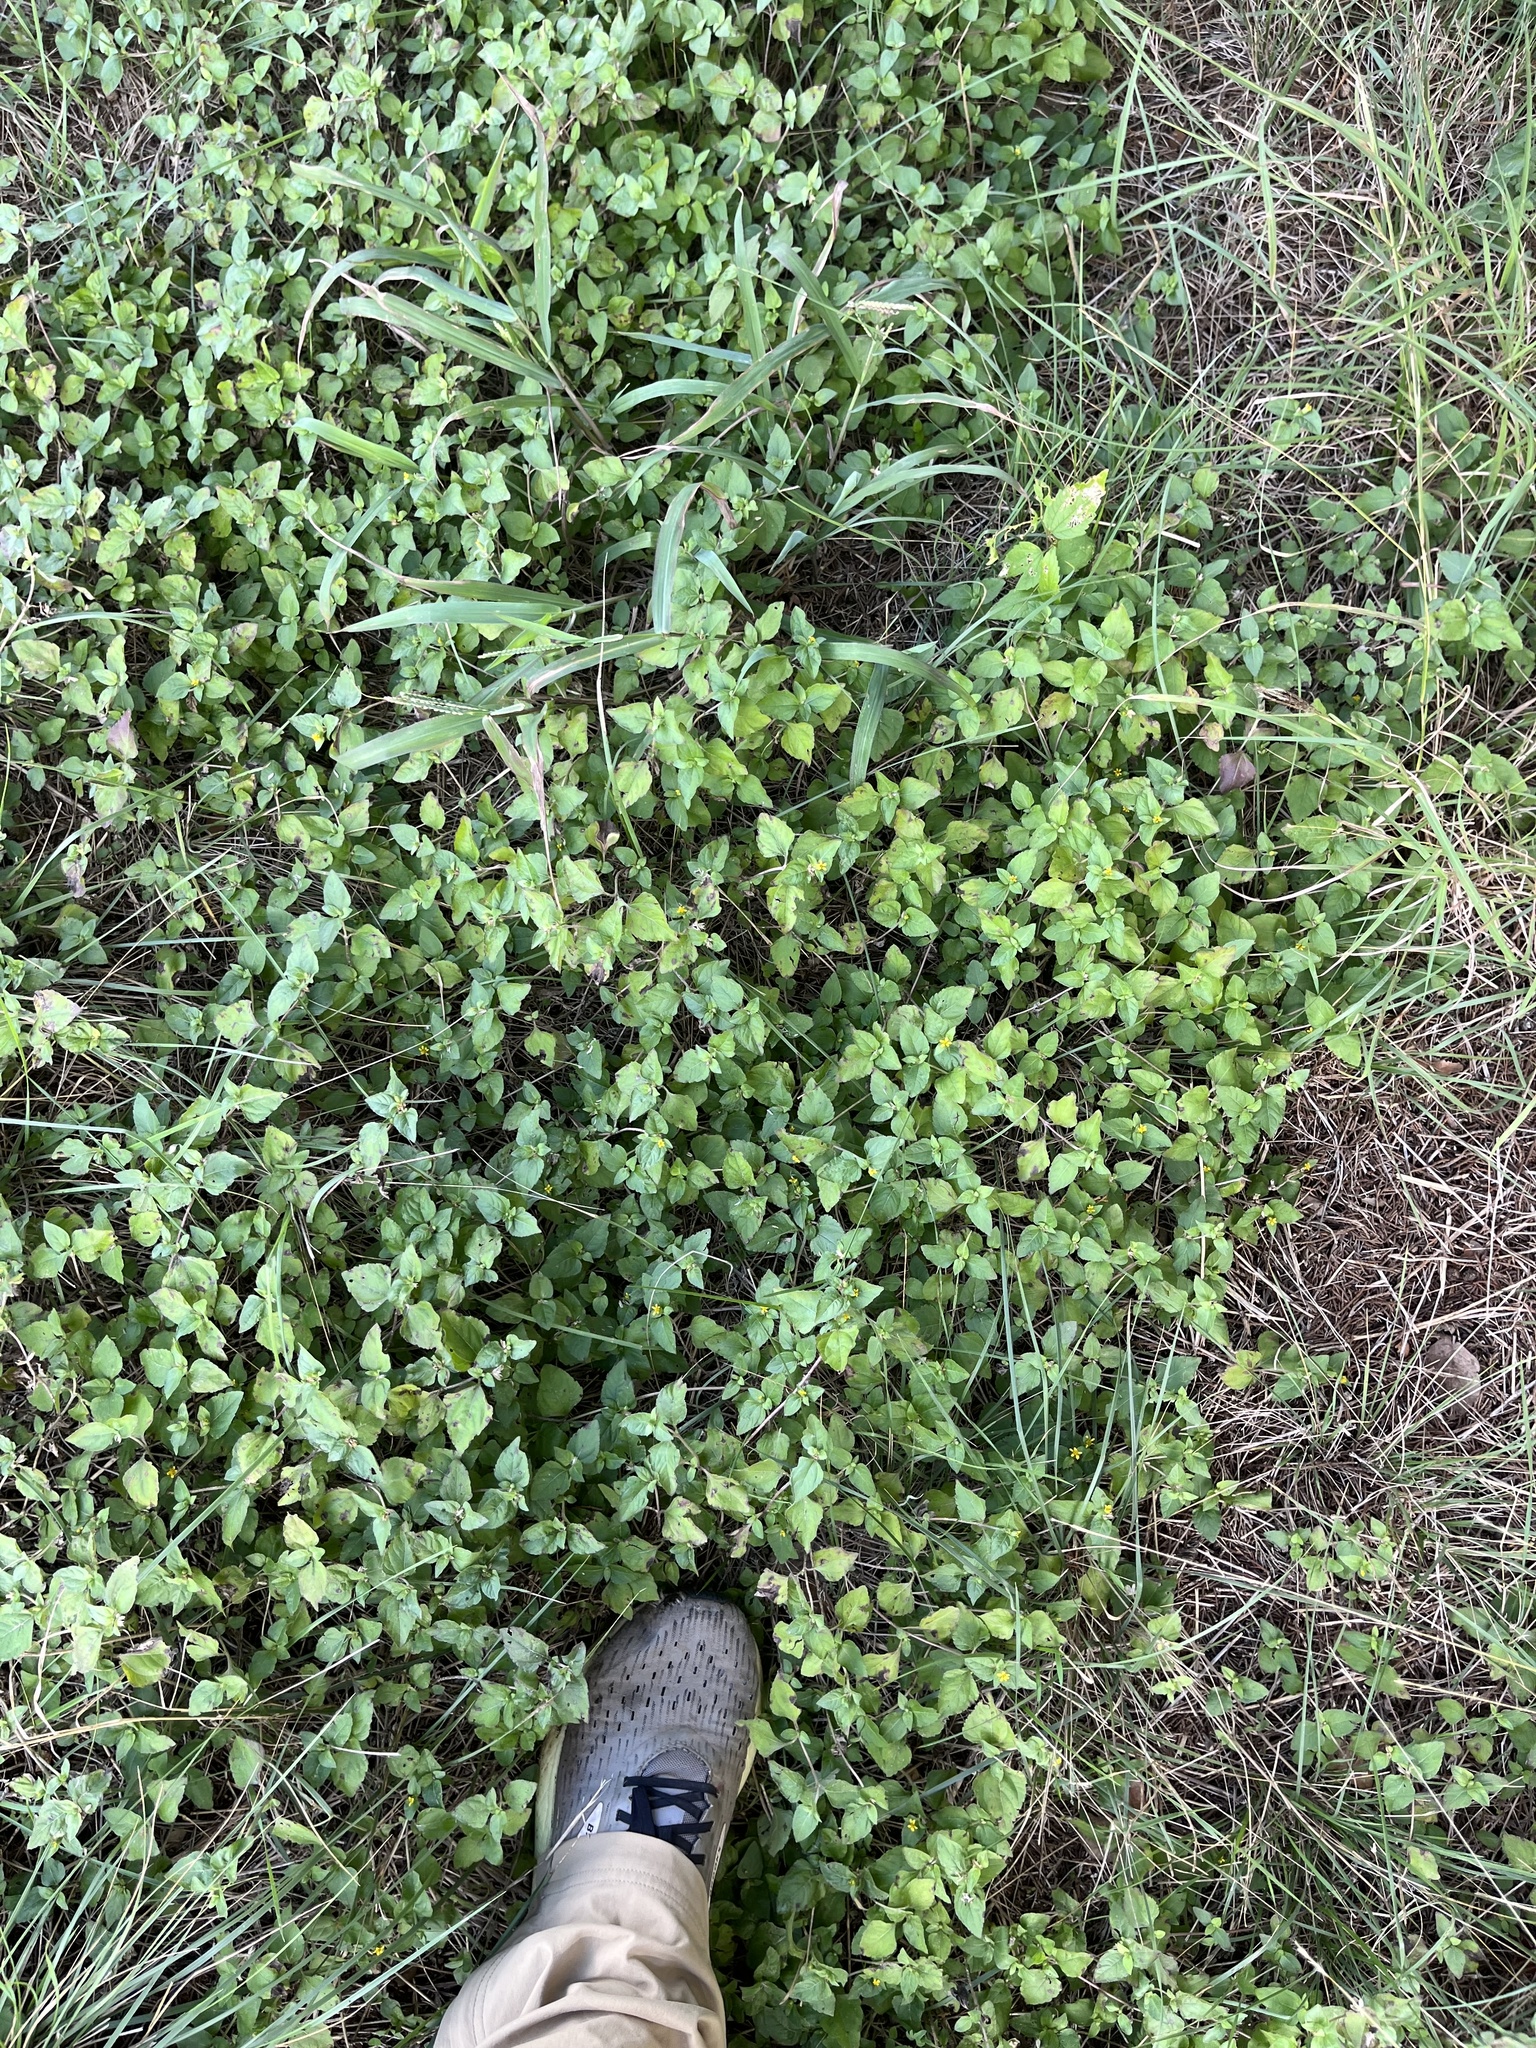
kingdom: Plantae
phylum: Tracheophyta
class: Magnoliopsida
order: Asterales
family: Asteraceae
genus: Calyptocarpus
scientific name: Calyptocarpus vialis
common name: Straggler daisy
